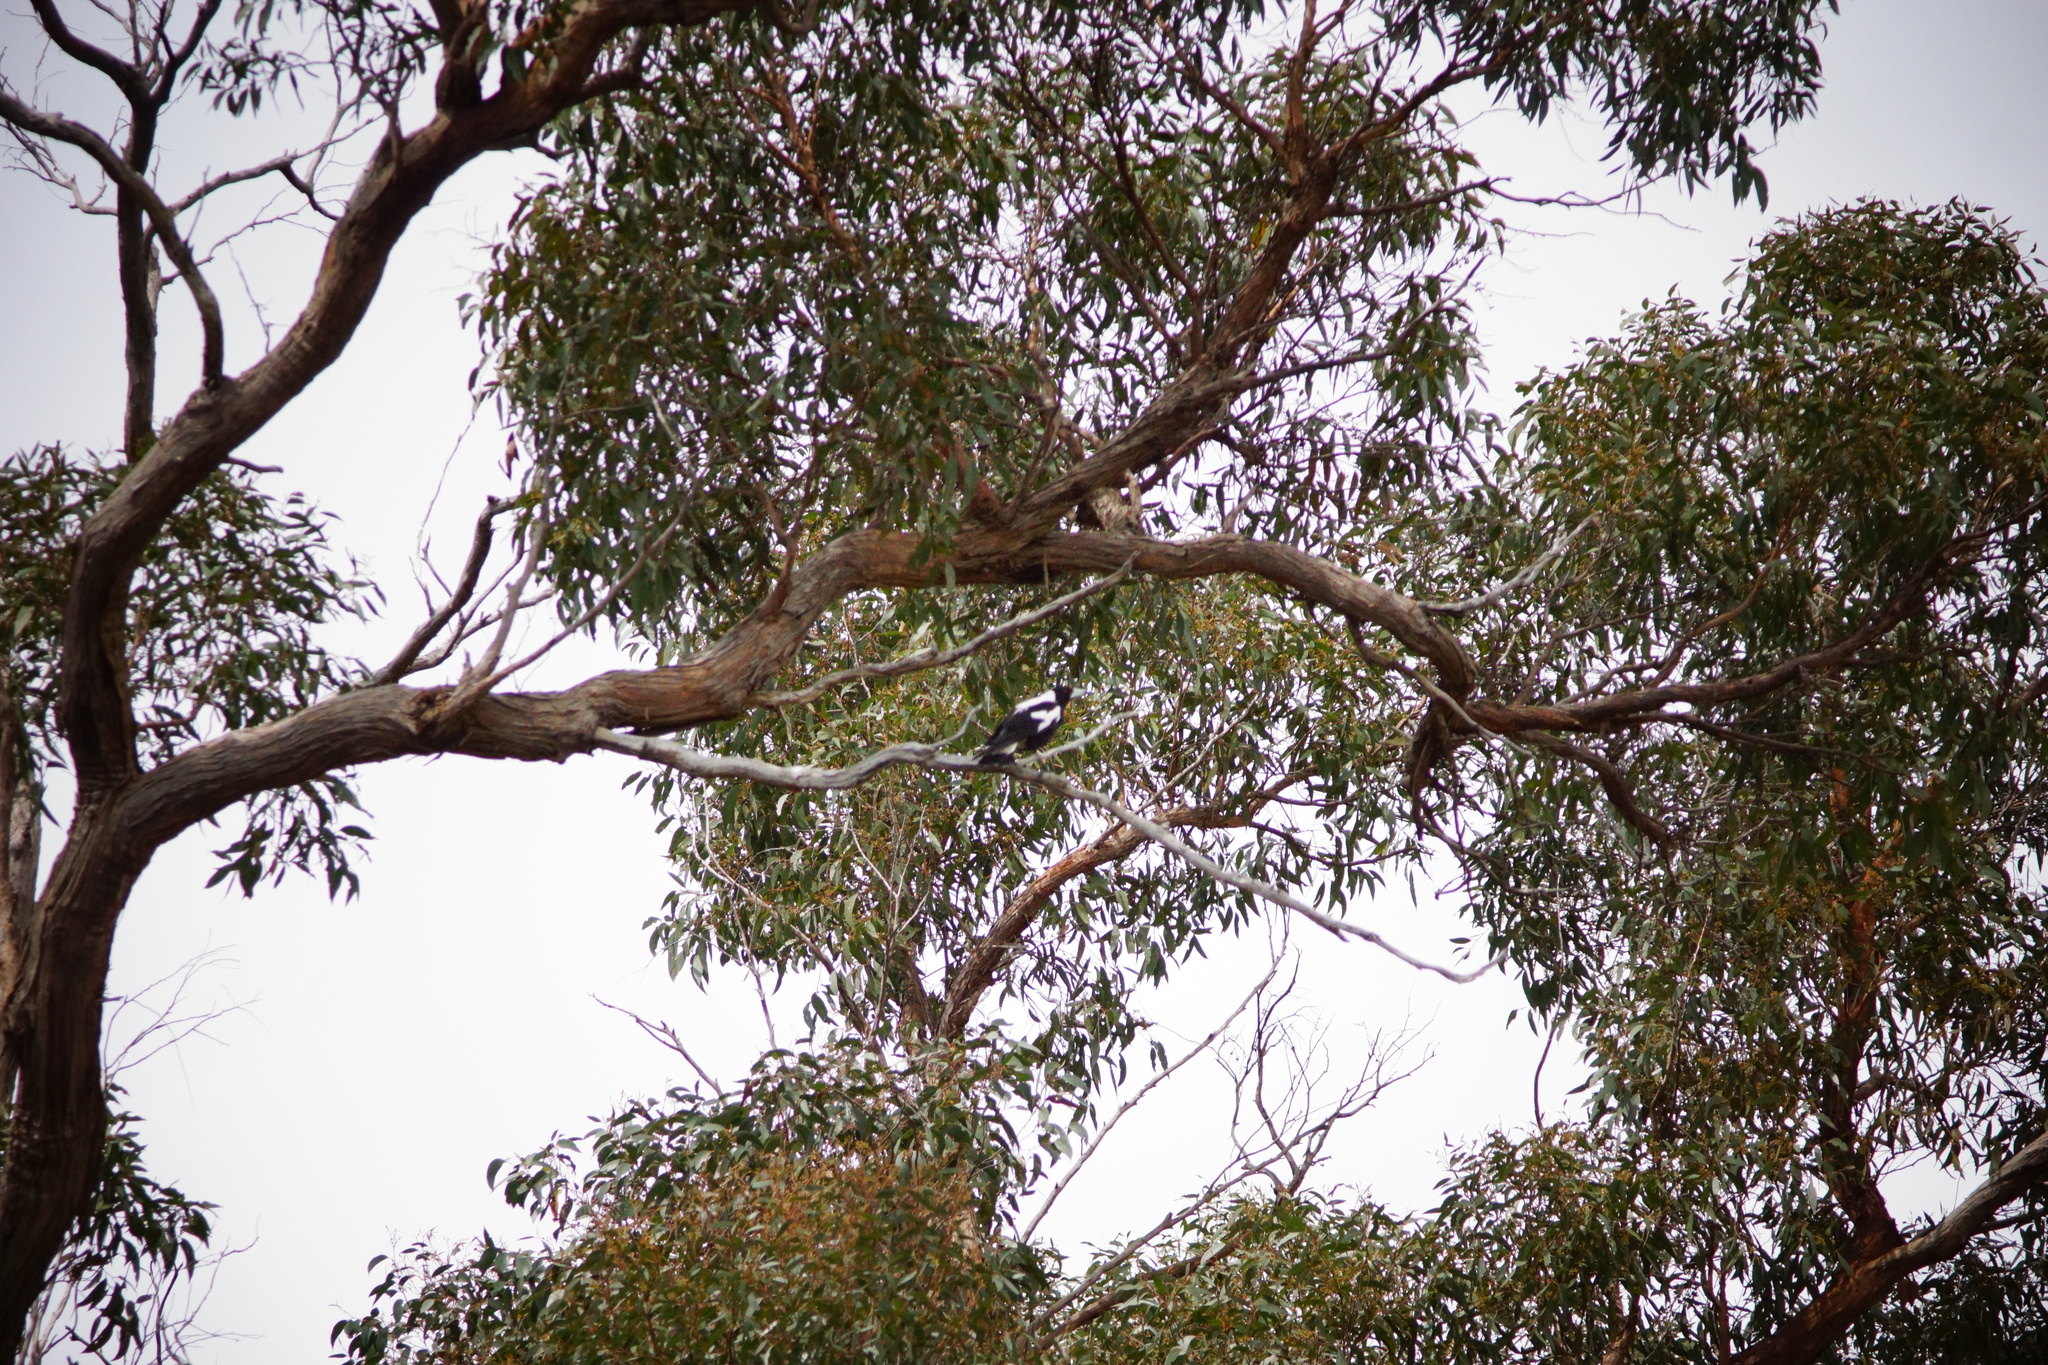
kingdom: Animalia
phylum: Chordata
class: Aves
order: Passeriformes
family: Cracticidae
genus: Gymnorhina
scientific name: Gymnorhina tibicen
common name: Australian magpie
